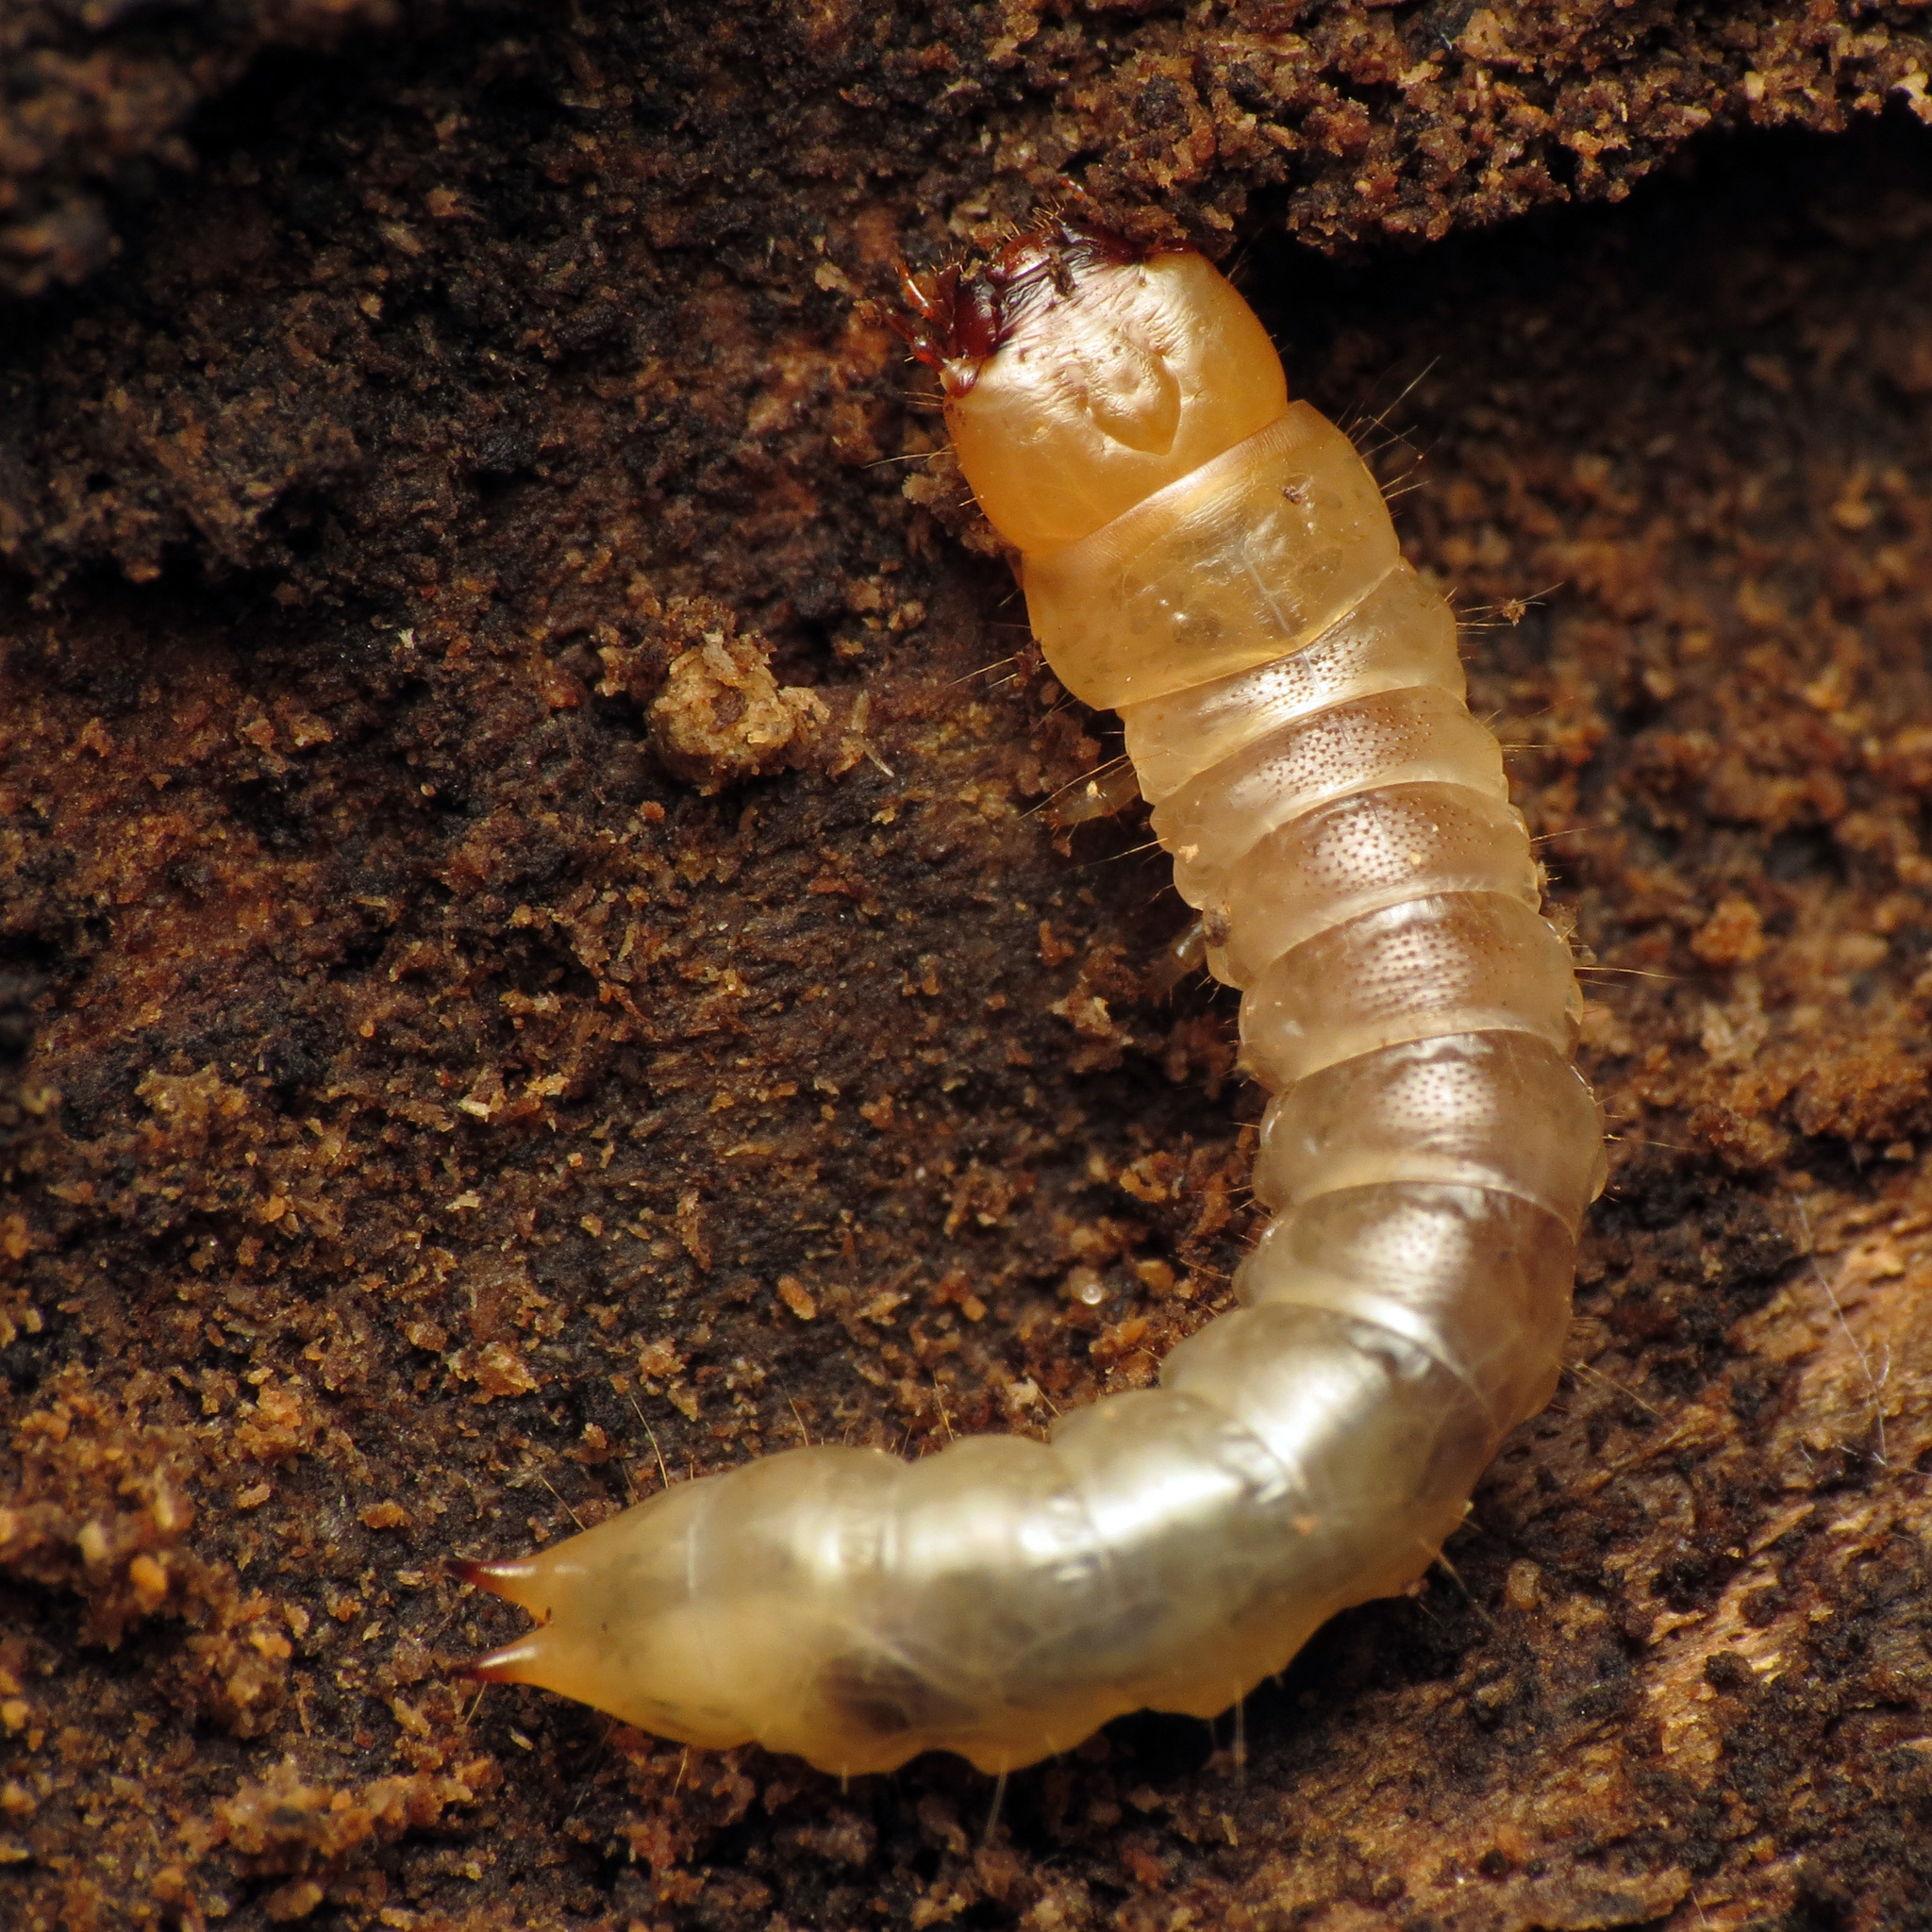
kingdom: Animalia
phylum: Arthropoda
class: Insecta
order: Coleoptera
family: Synchroidae
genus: Synchroa
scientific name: Synchroa punctata
